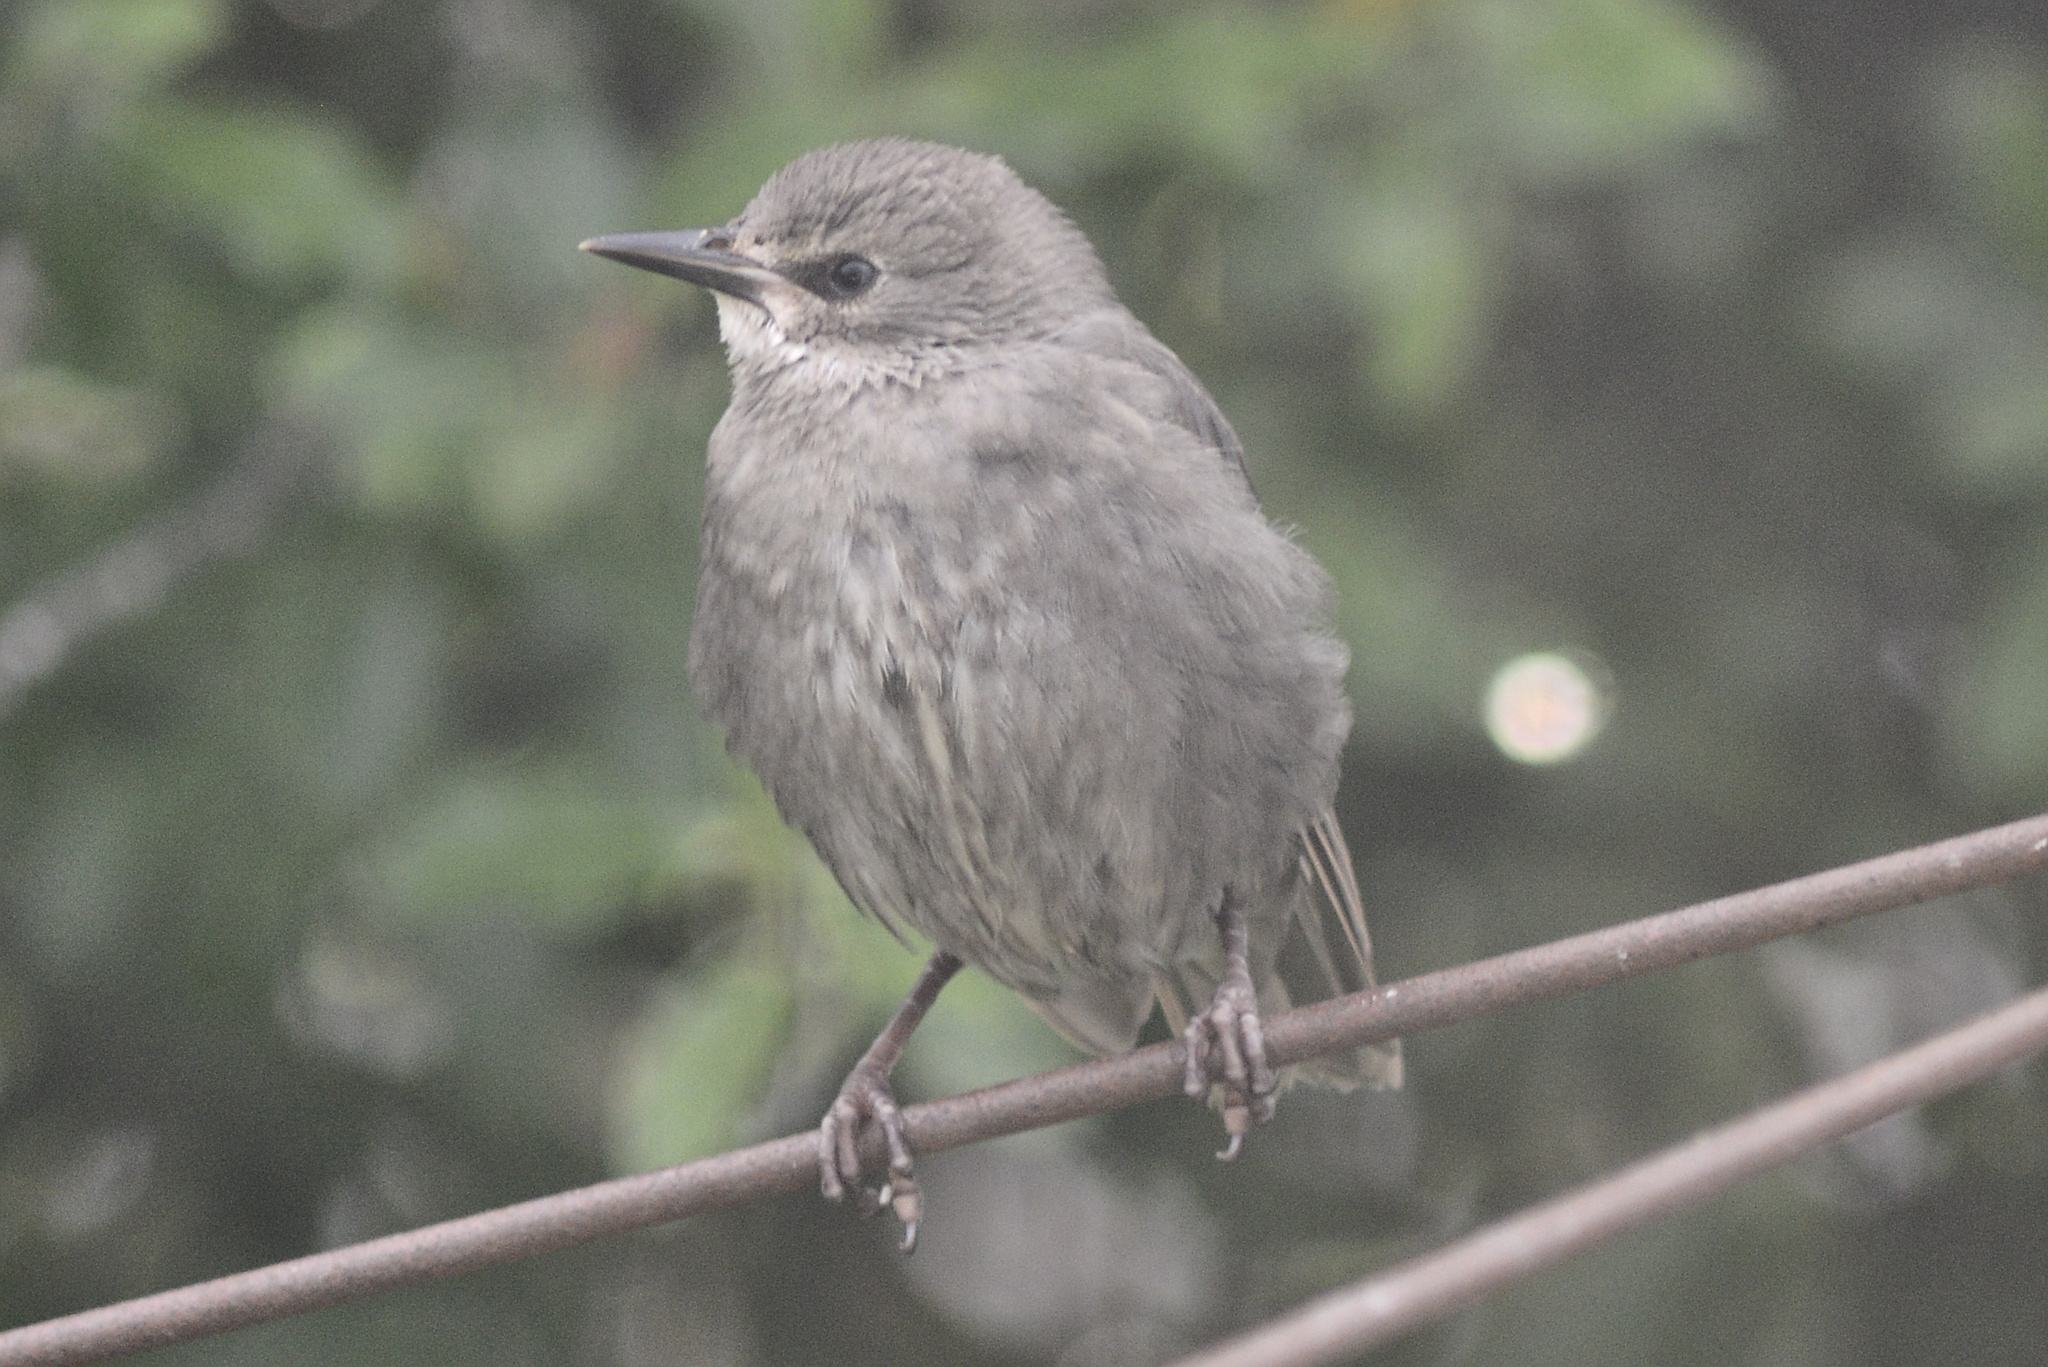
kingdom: Animalia
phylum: Chordata
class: Aves
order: Passeriformes
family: Sturnidae
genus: Sturnus
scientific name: Sturnus vulgaris
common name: Common starling
